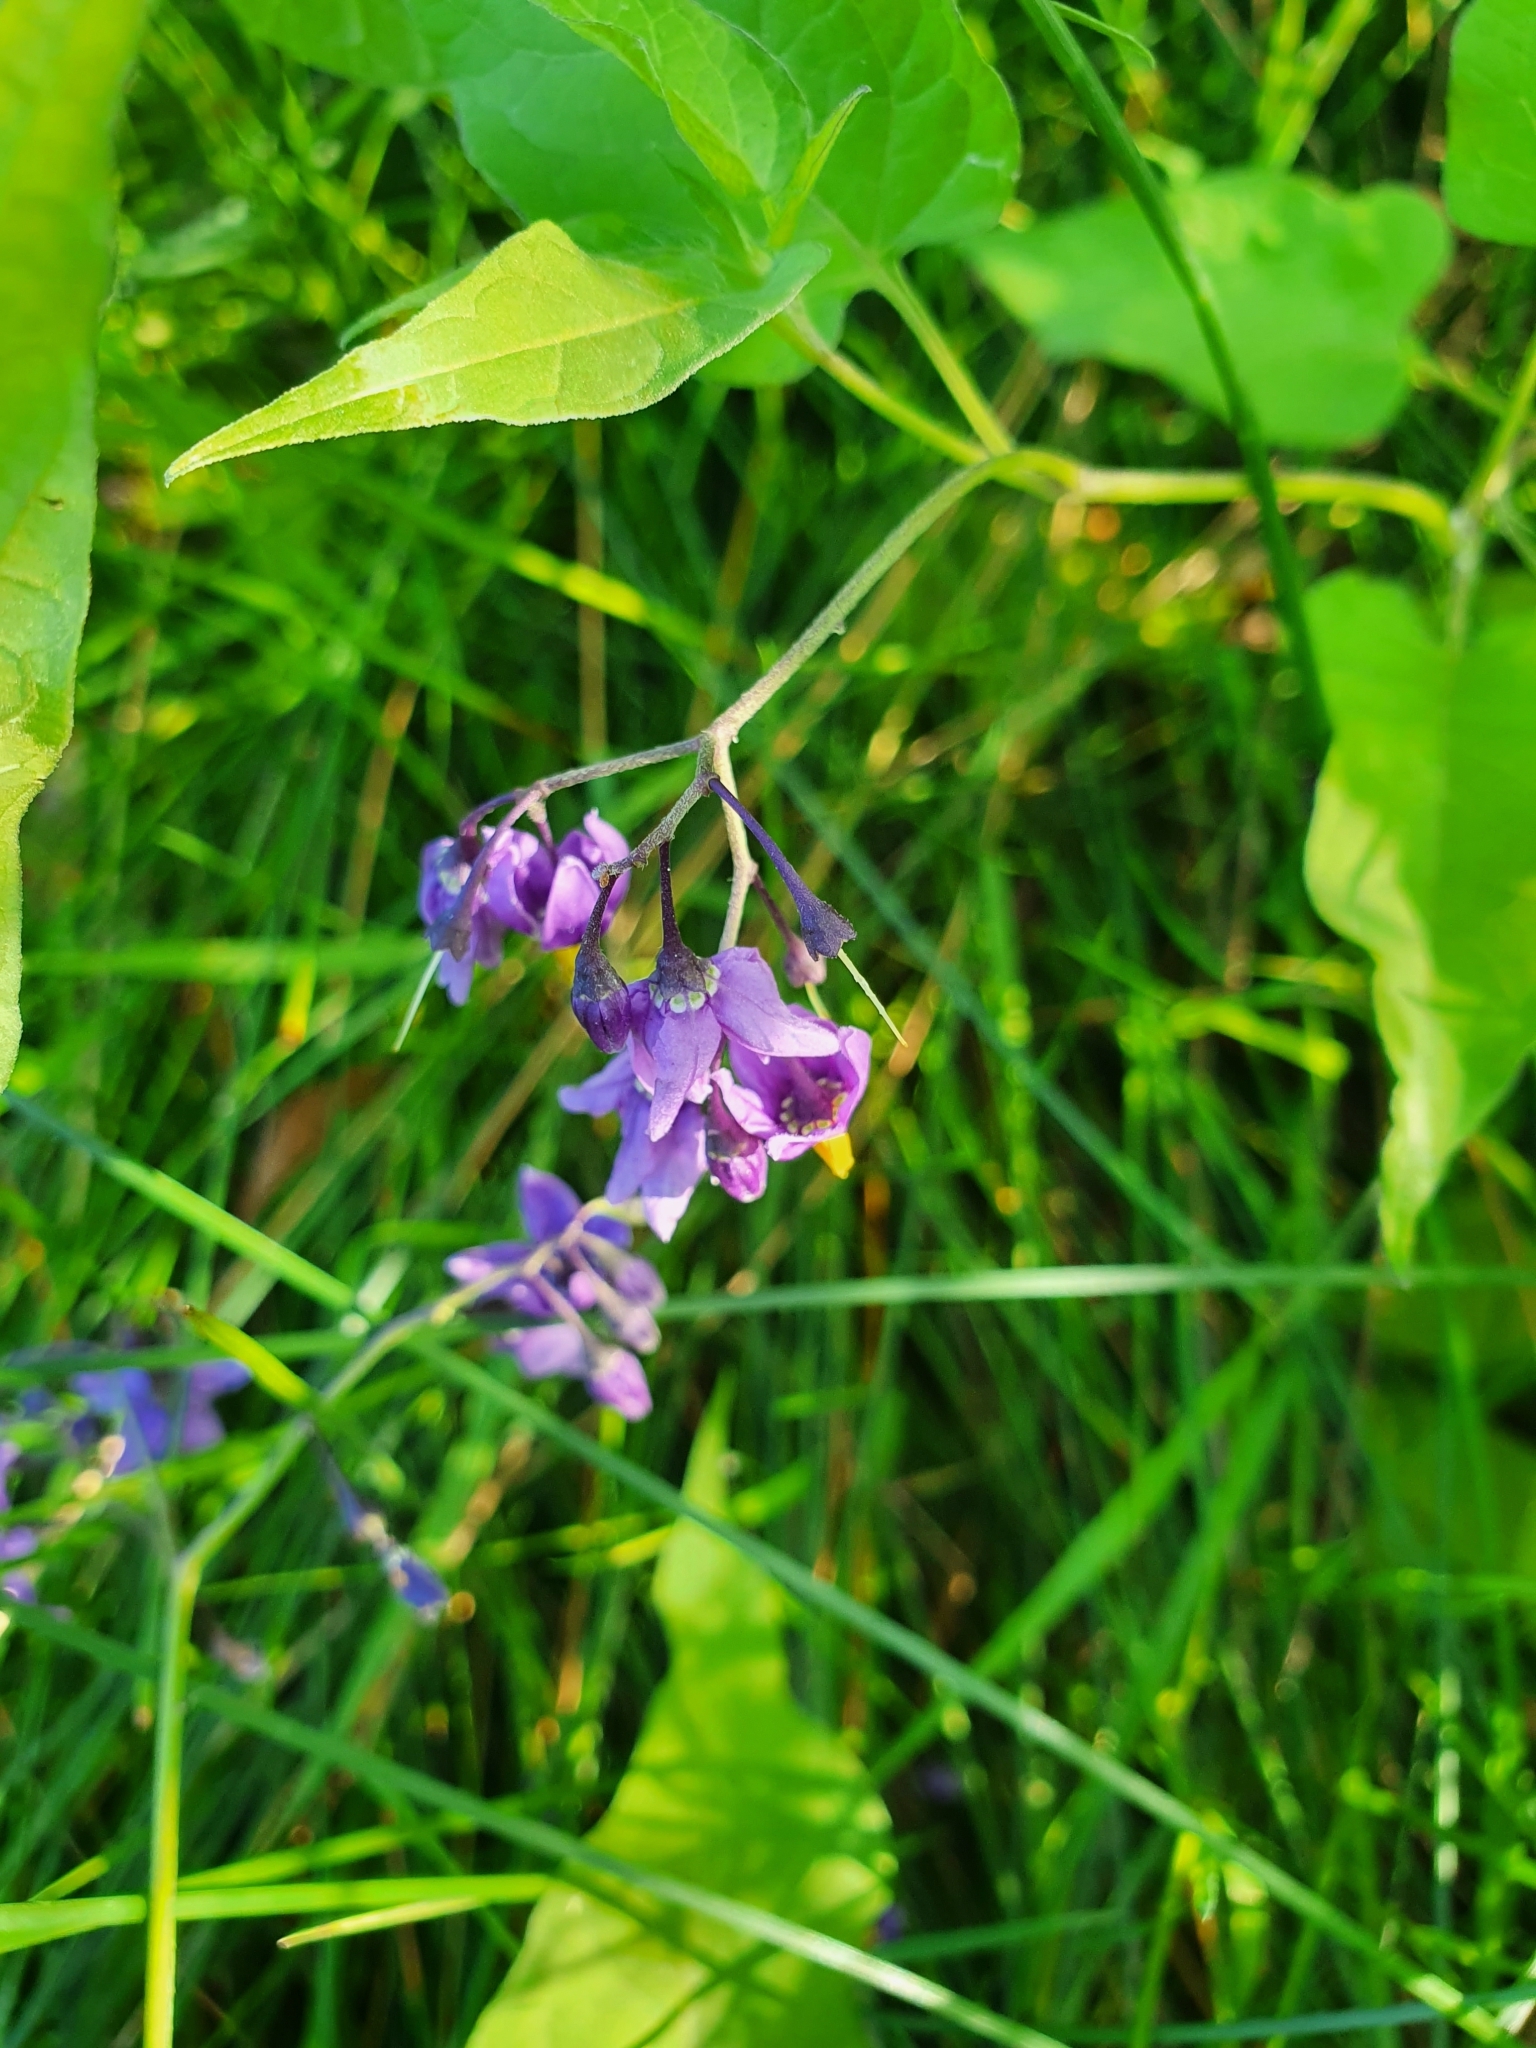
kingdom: Plantae
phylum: Tracheophyta
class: Magnoliopsida
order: Solanales
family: Solanaceae
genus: Solanum
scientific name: Solanum dulcamara
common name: Climbing nightshade
